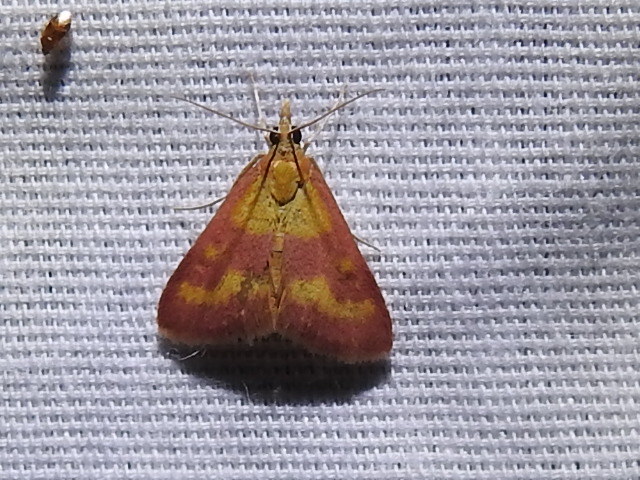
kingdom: Animalia
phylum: Arthropoda
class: Insecta
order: Lepidoptera
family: Crambidae
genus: Pyrausta
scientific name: Pyrausta laticlavia
